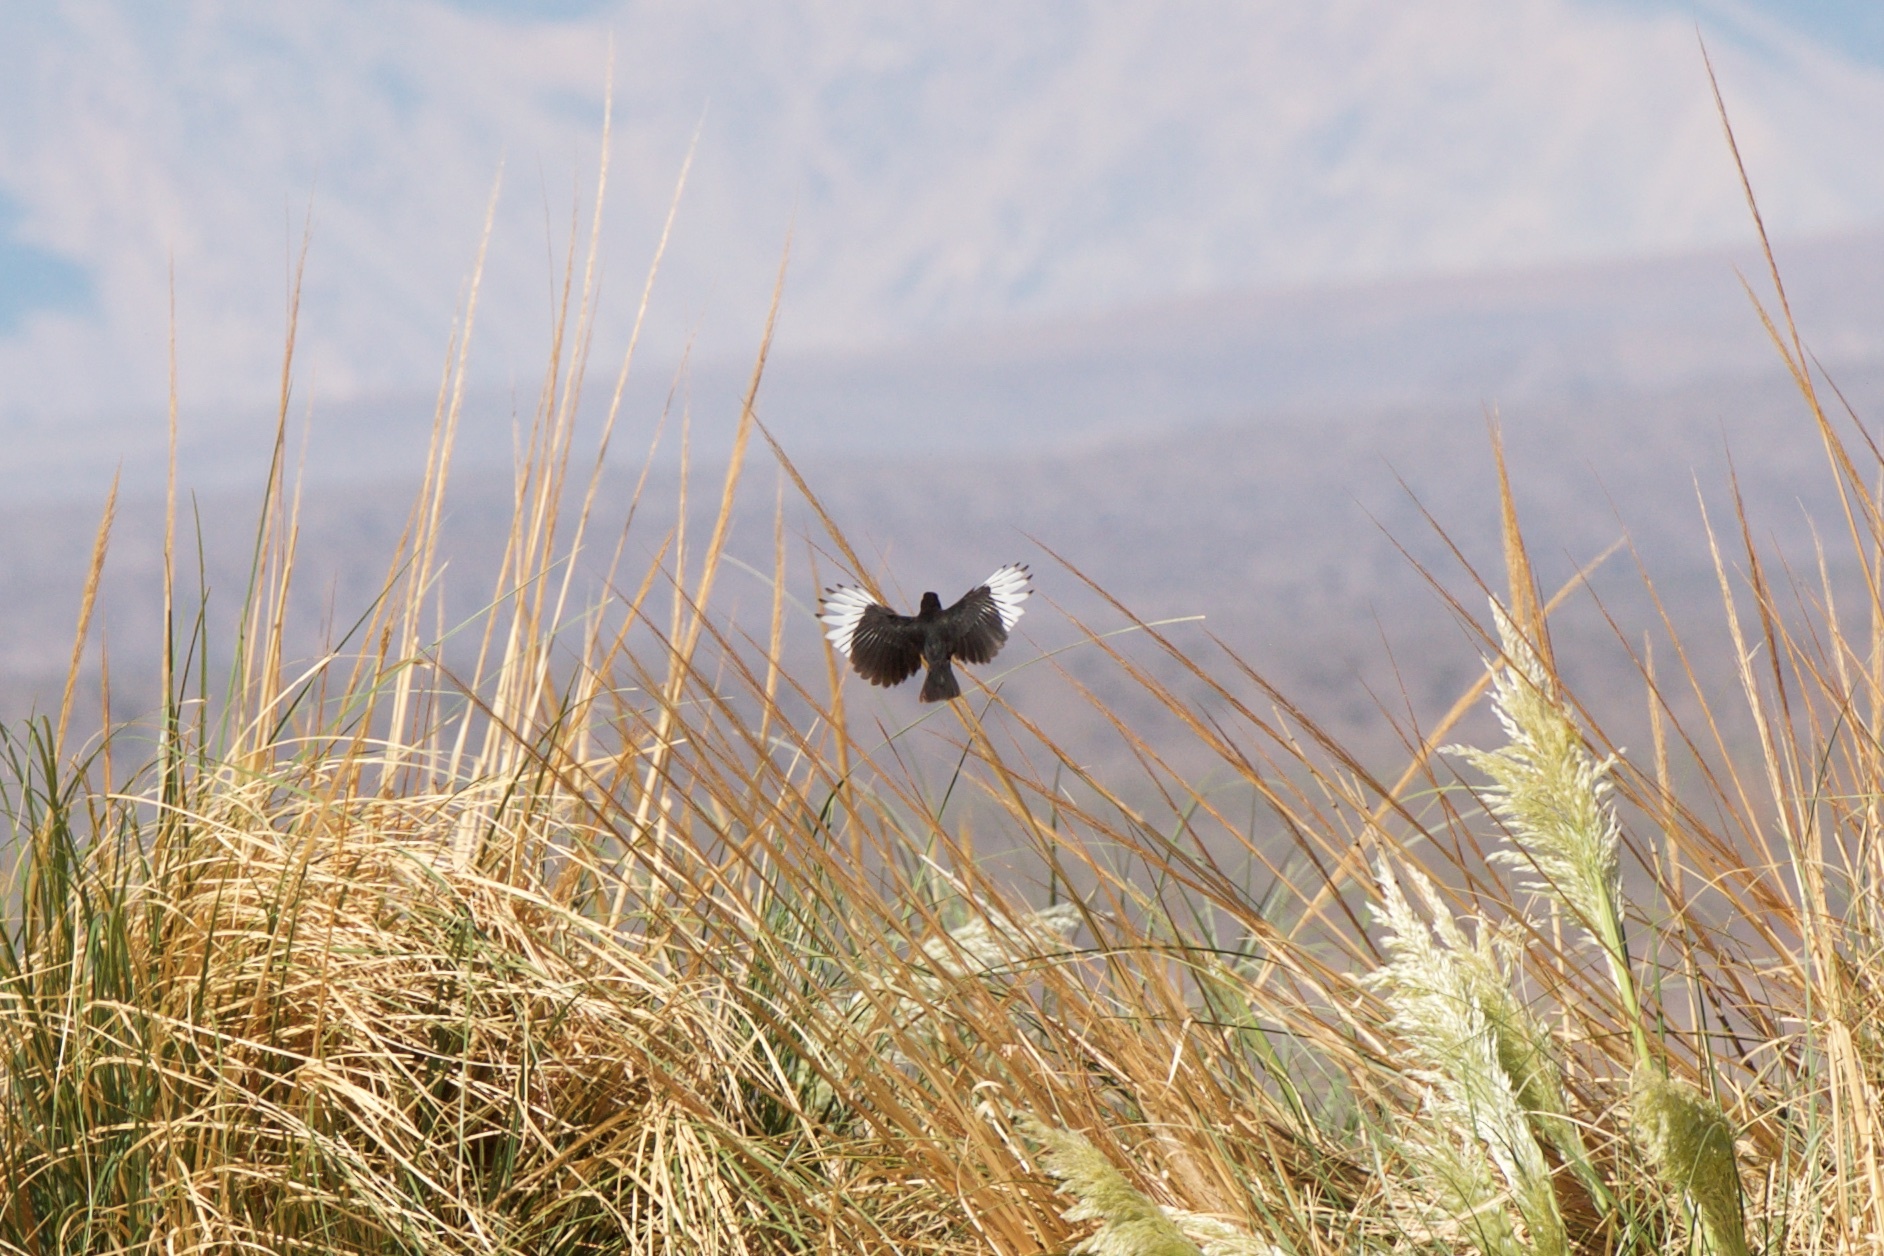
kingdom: Animalia
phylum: Chordata
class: Aves
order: Passeriformes
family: Tyrannidae
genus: Hymenops
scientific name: Hymenops perspicillatus
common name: Spectacled tyrant
